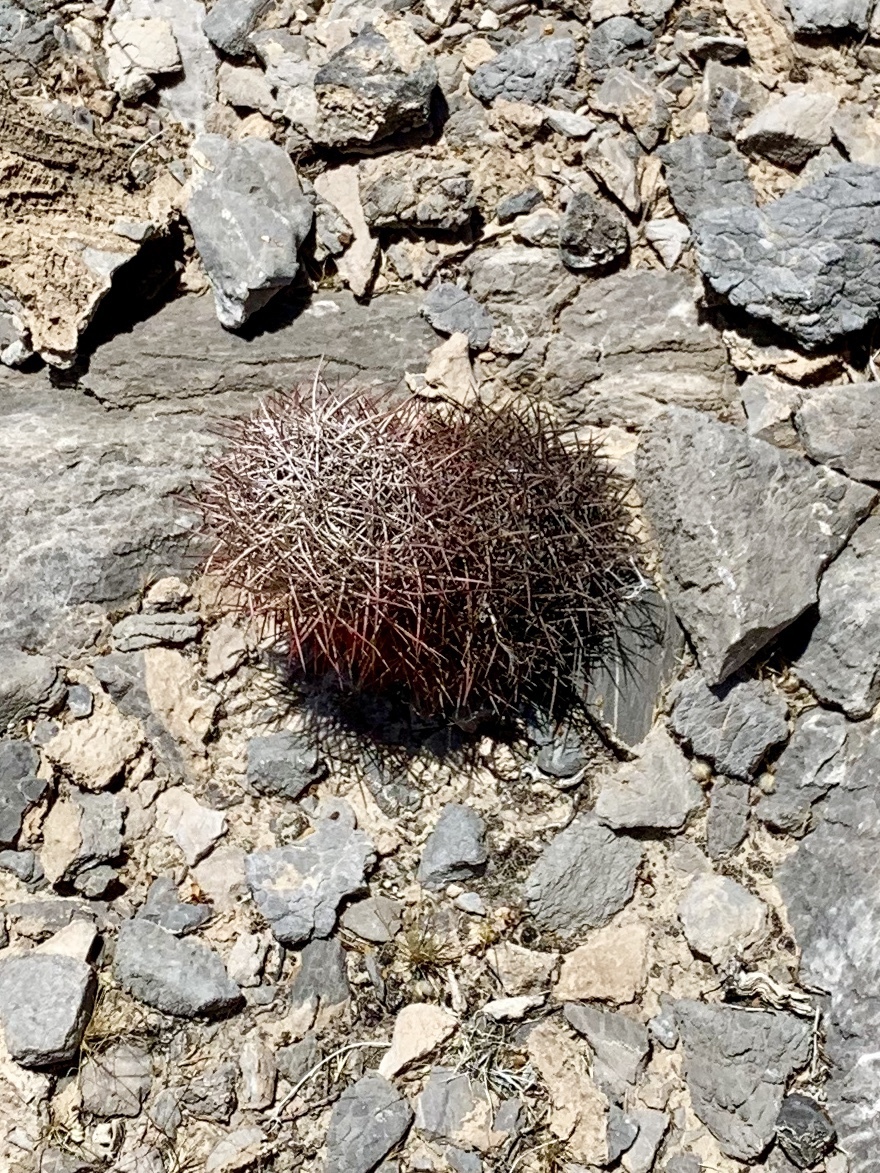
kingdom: Plantae
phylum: Tracheophyta
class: Magnoliopsida
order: Caryophyllales
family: Cactaceae
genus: Sclerocactus
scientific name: Sclerocactus johnsonii
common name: Eight-spine fishhook cactus
